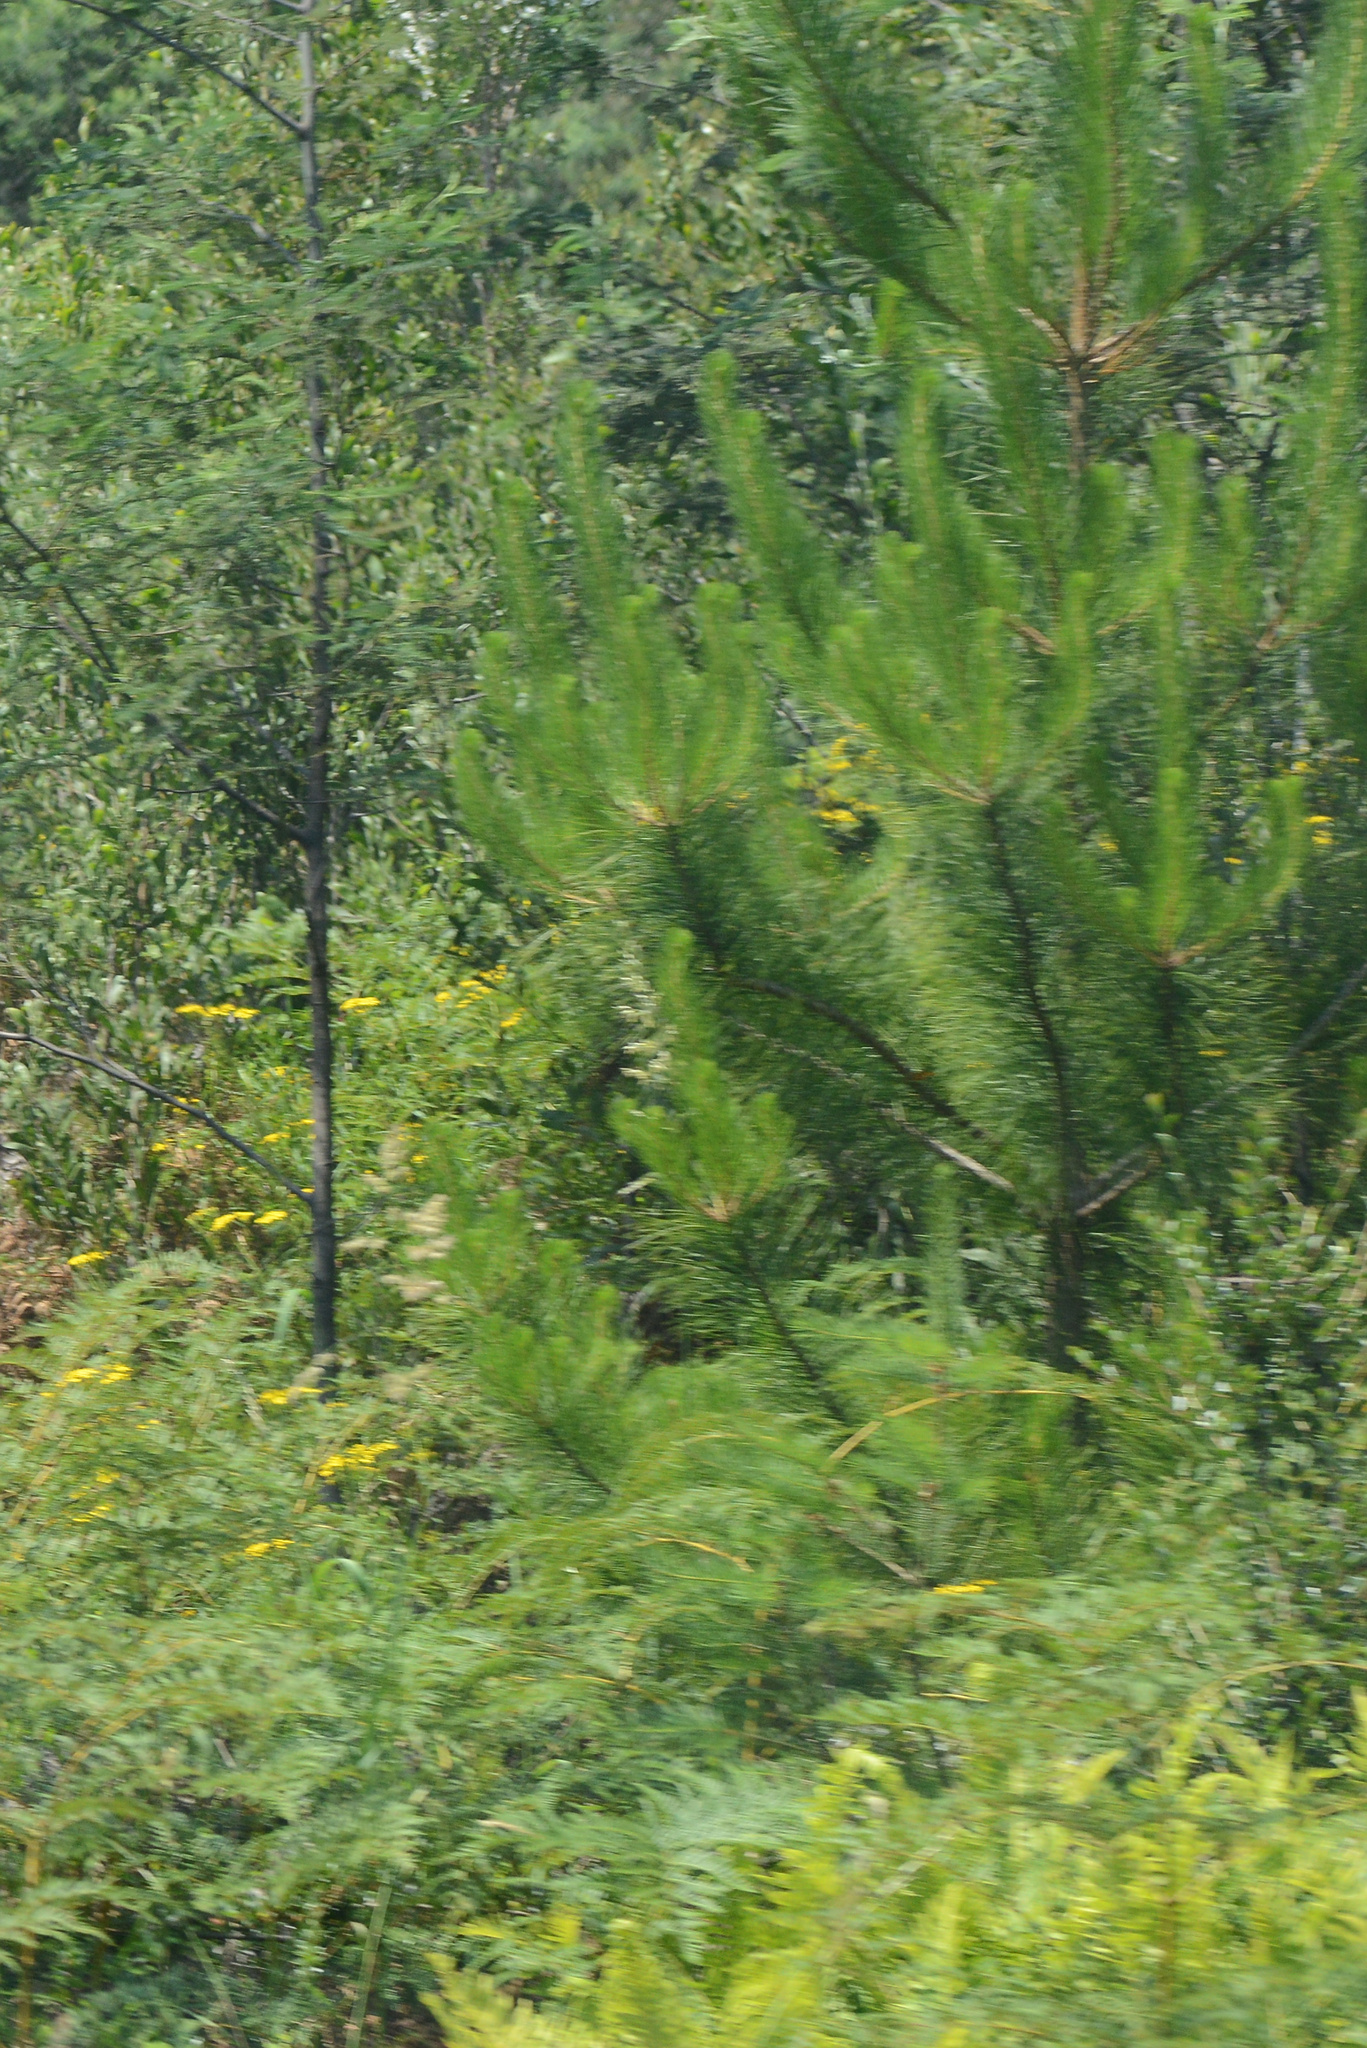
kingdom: Plantae
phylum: Tracheophyta
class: Pinopsida
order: Pinales
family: Pinaceae
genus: Pinus
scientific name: Pinus radiata
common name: Monterey pine
